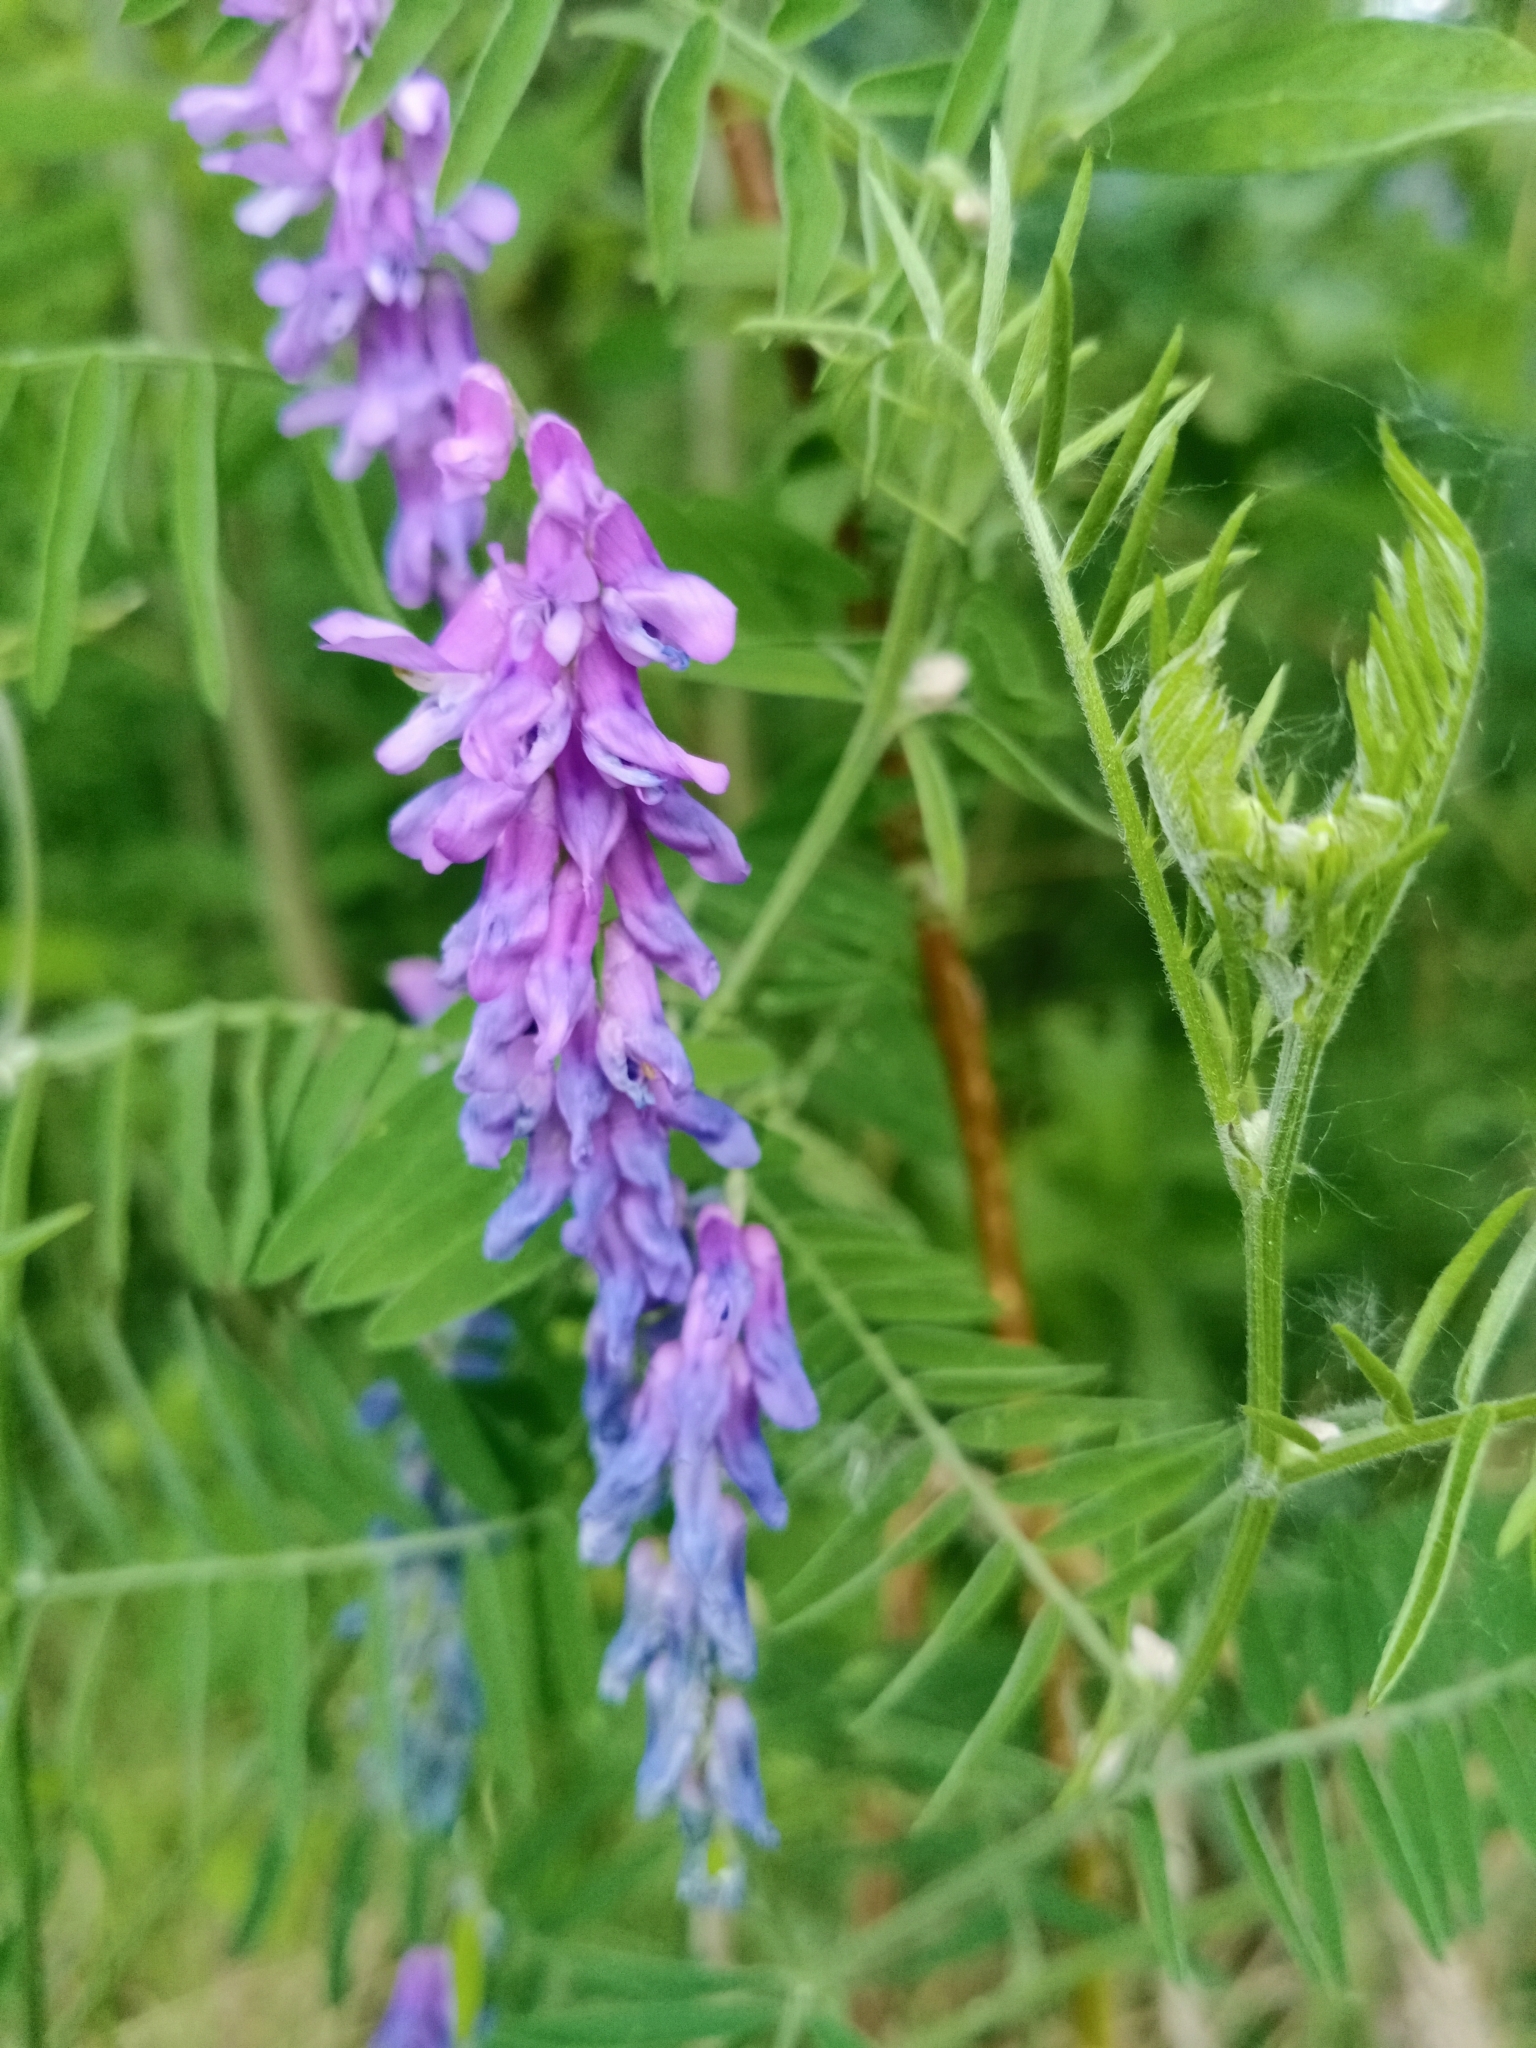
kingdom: Plantae
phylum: Tracheophyta
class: Magnoliopsida
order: Fabales
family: Fabaceae
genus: Vicia
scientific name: Vicia cracca
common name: Bird vetch
